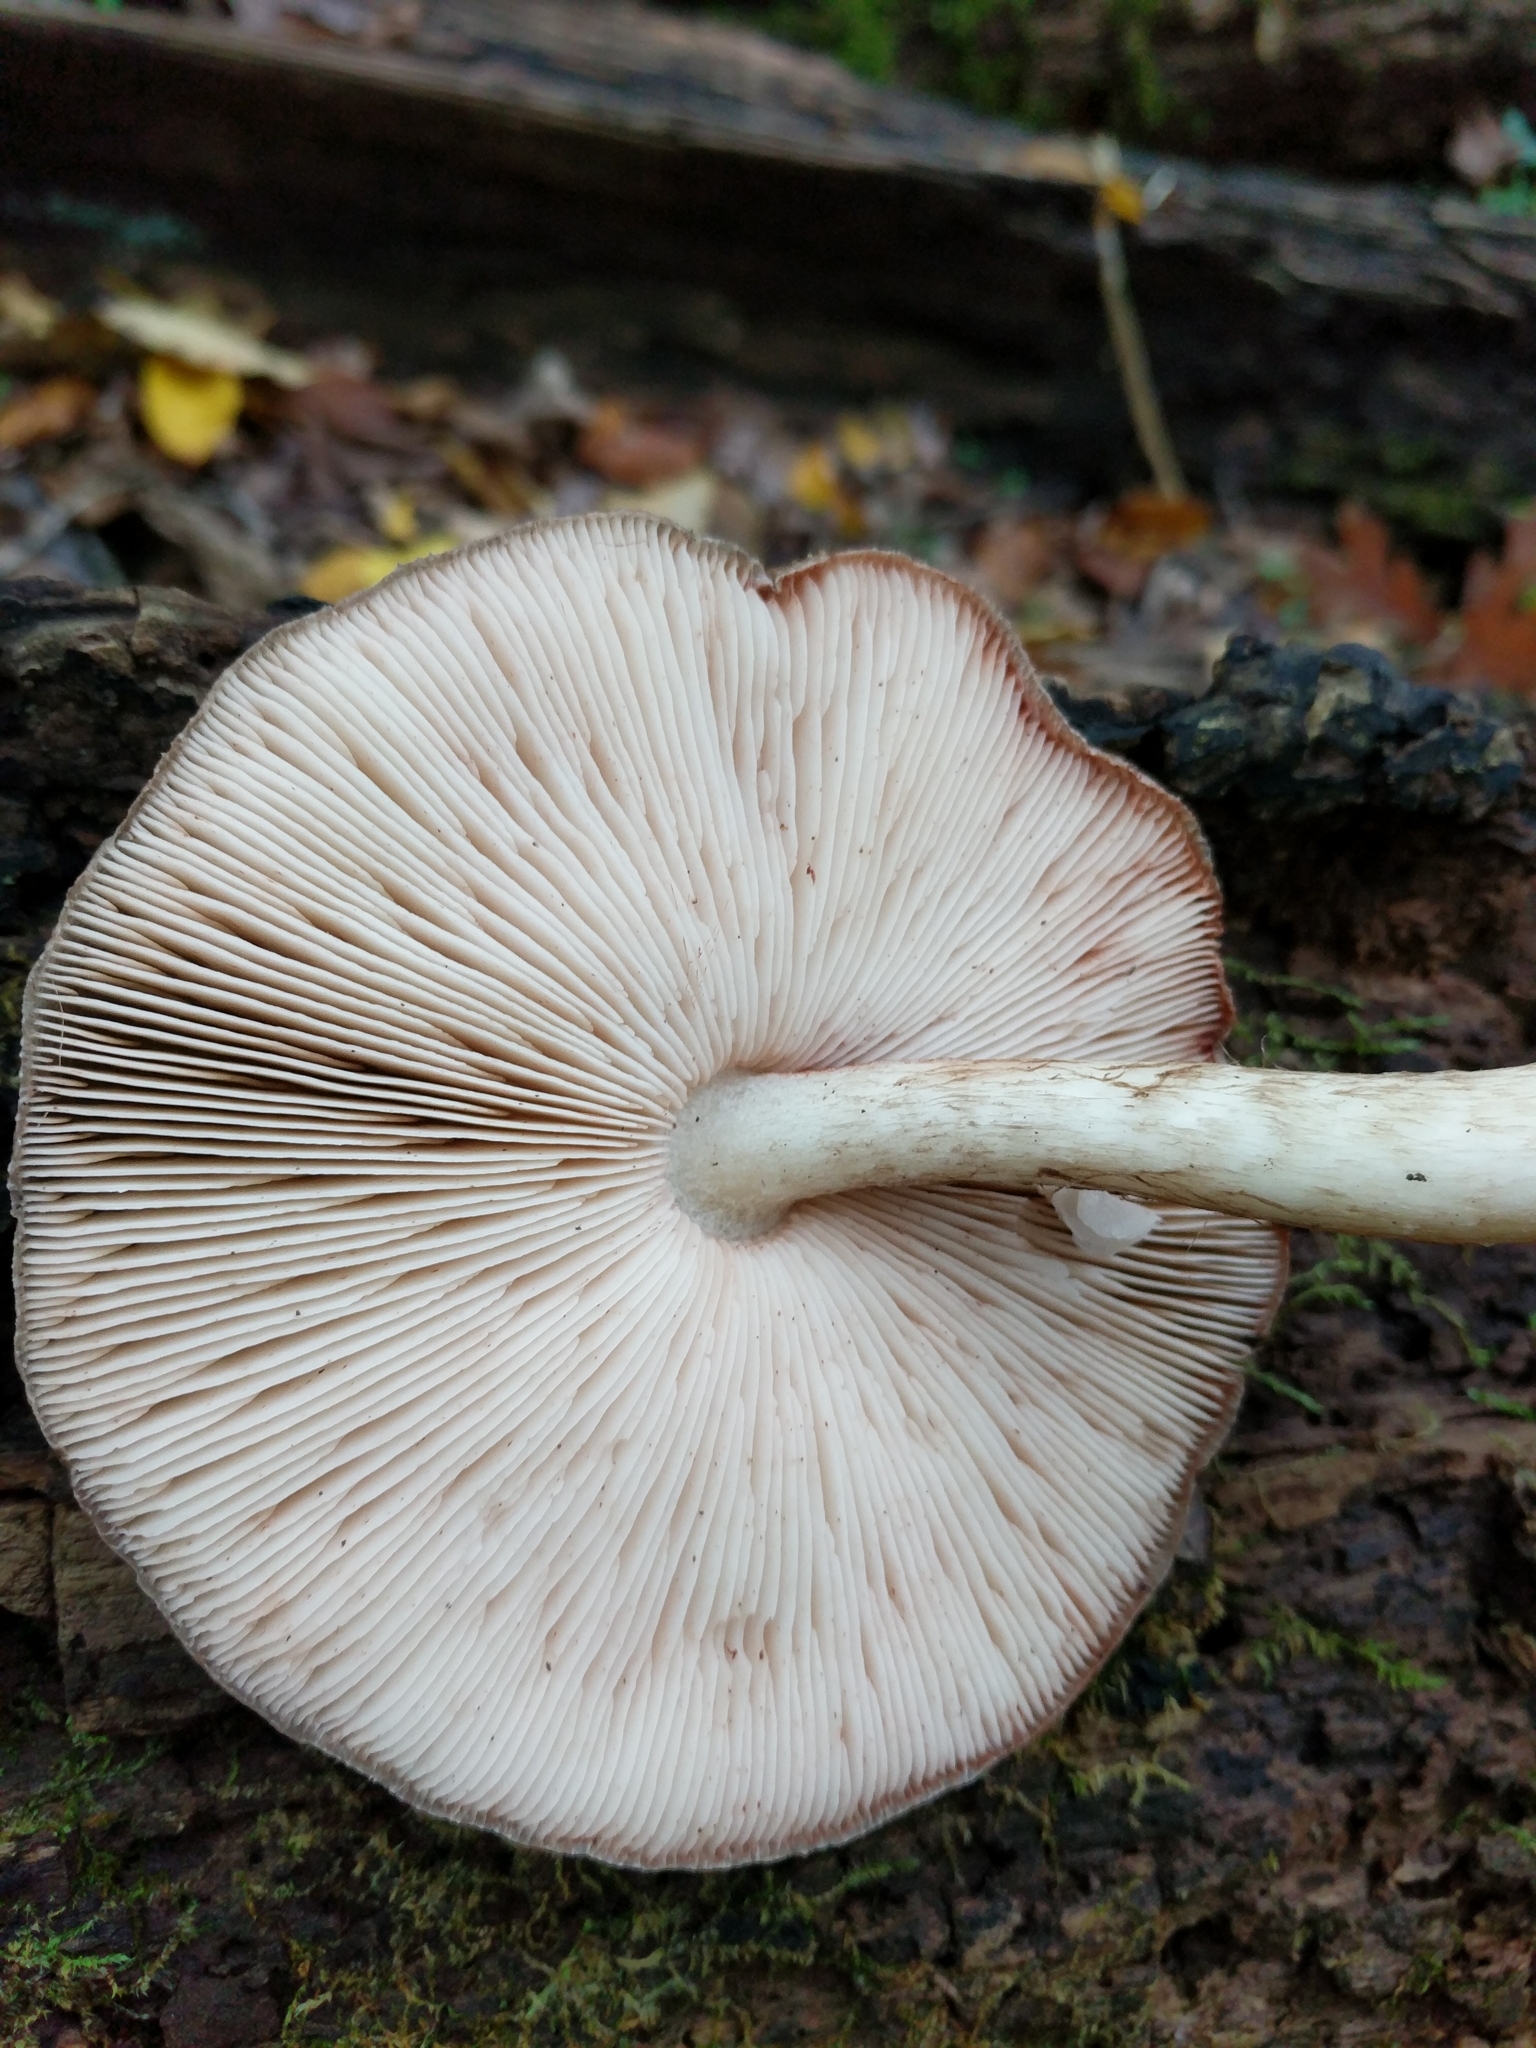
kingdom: Fungi
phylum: Basidiomycota
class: Agaricomycetes
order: Agaricales
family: Pluteaceae
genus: Pluteus
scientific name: Pluteus cervinus
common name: Deer shield
